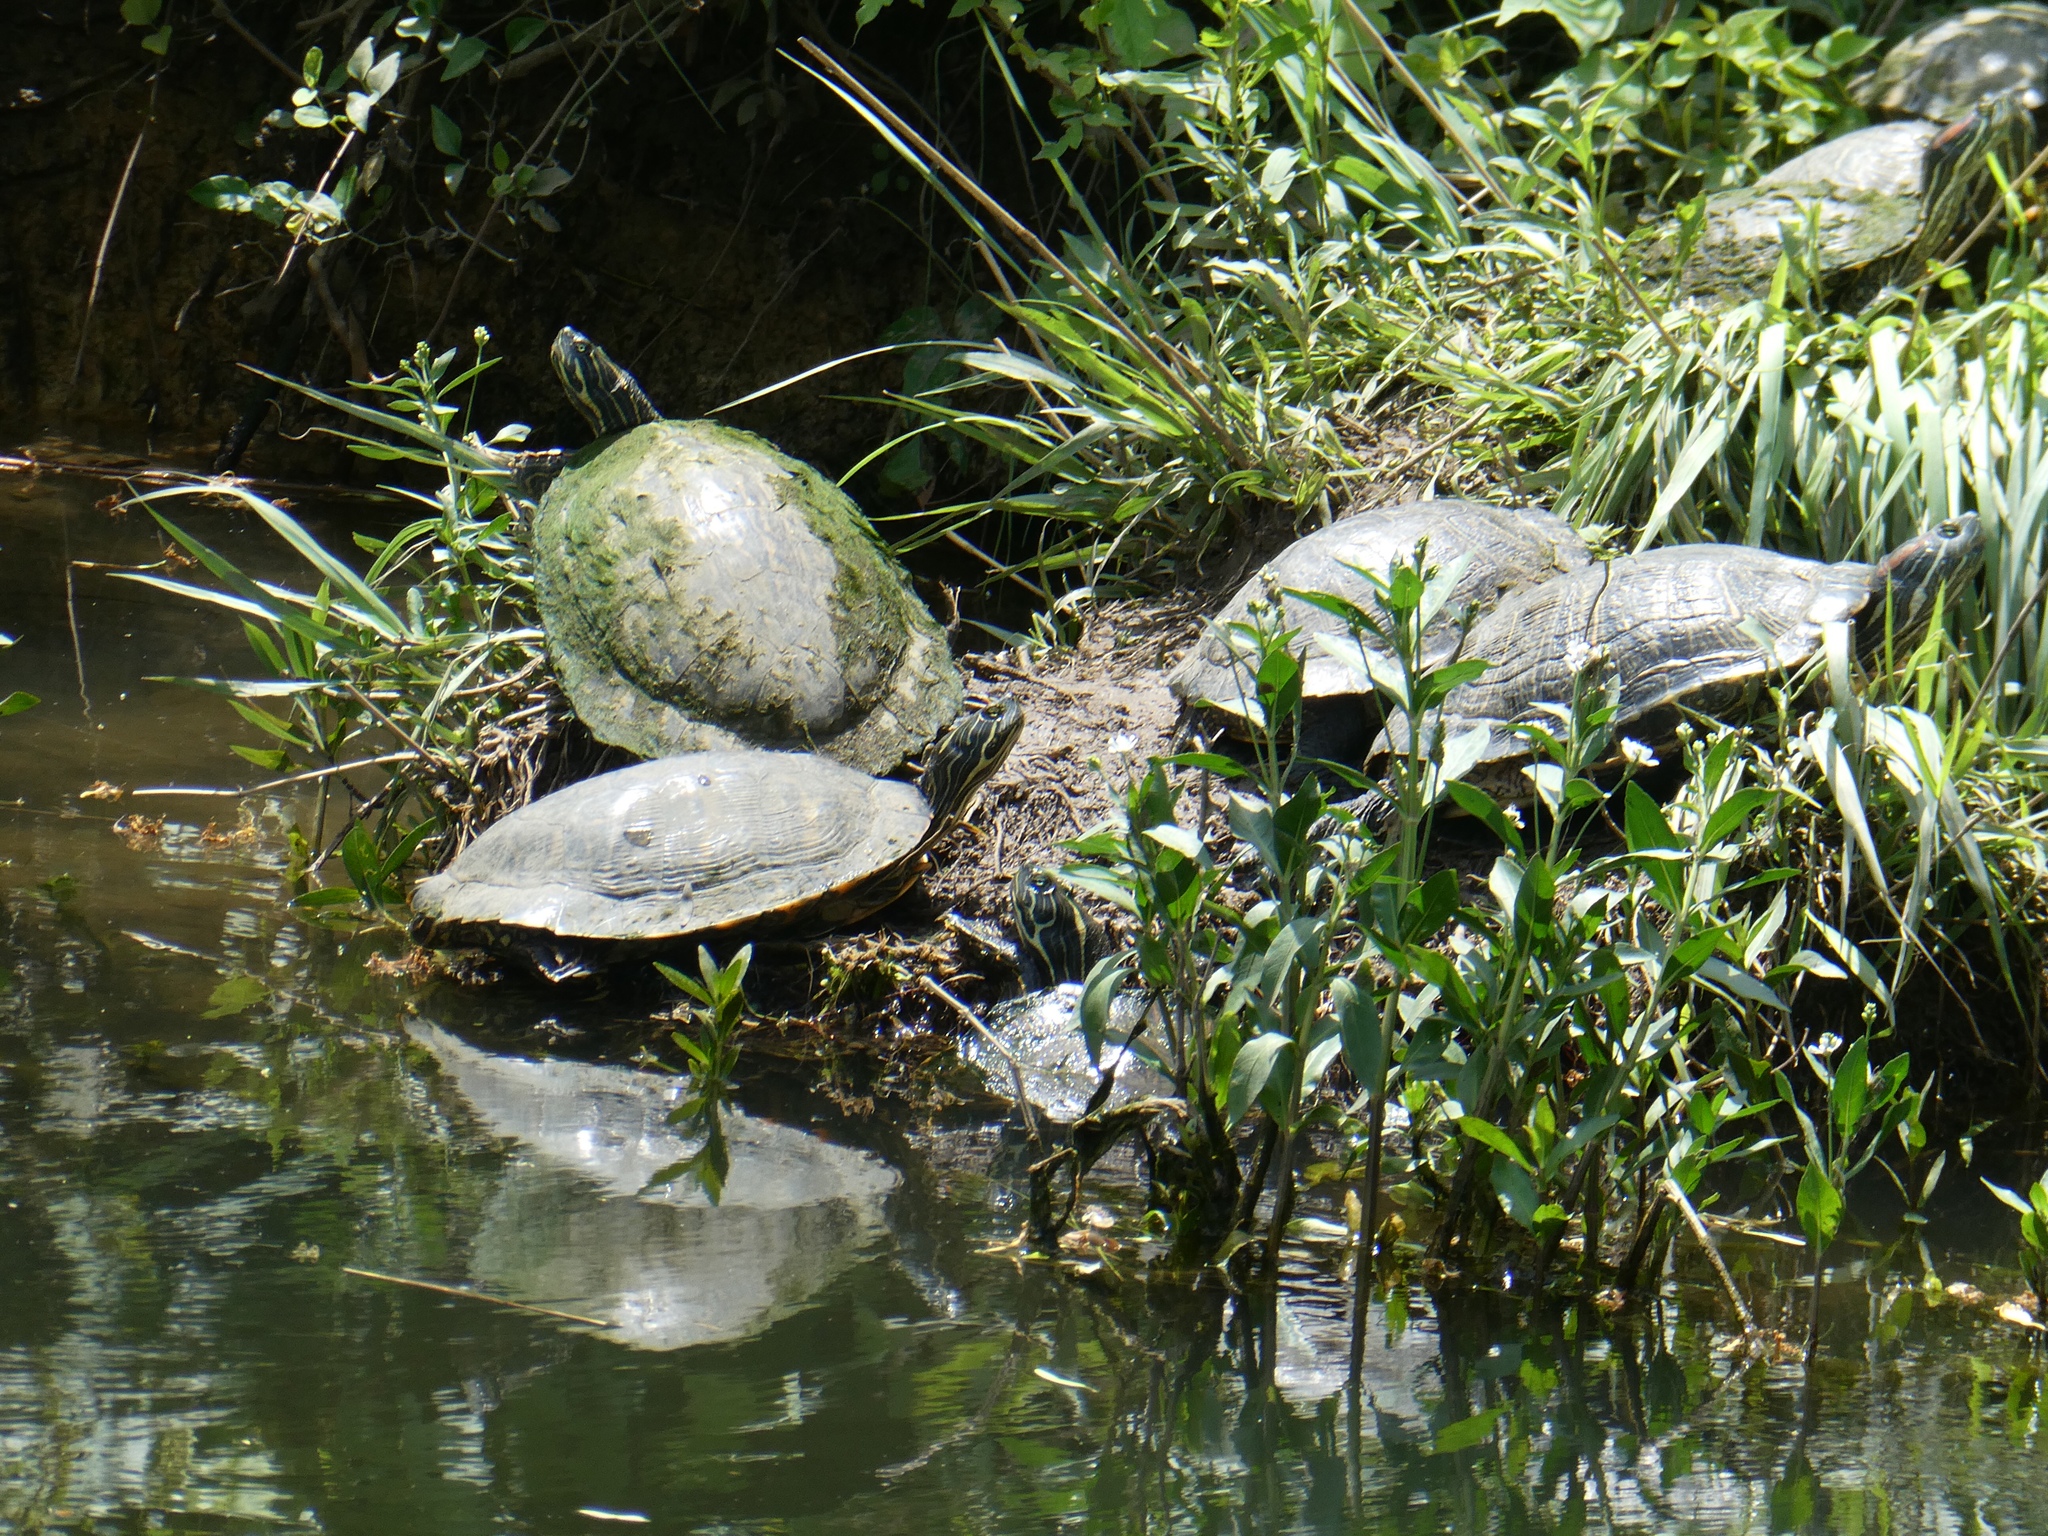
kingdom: Animalia
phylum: Chordata
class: Testudines
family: Emydidae
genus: Pseudemys
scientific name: Pseudemys concinna
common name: Eastern river cooter
